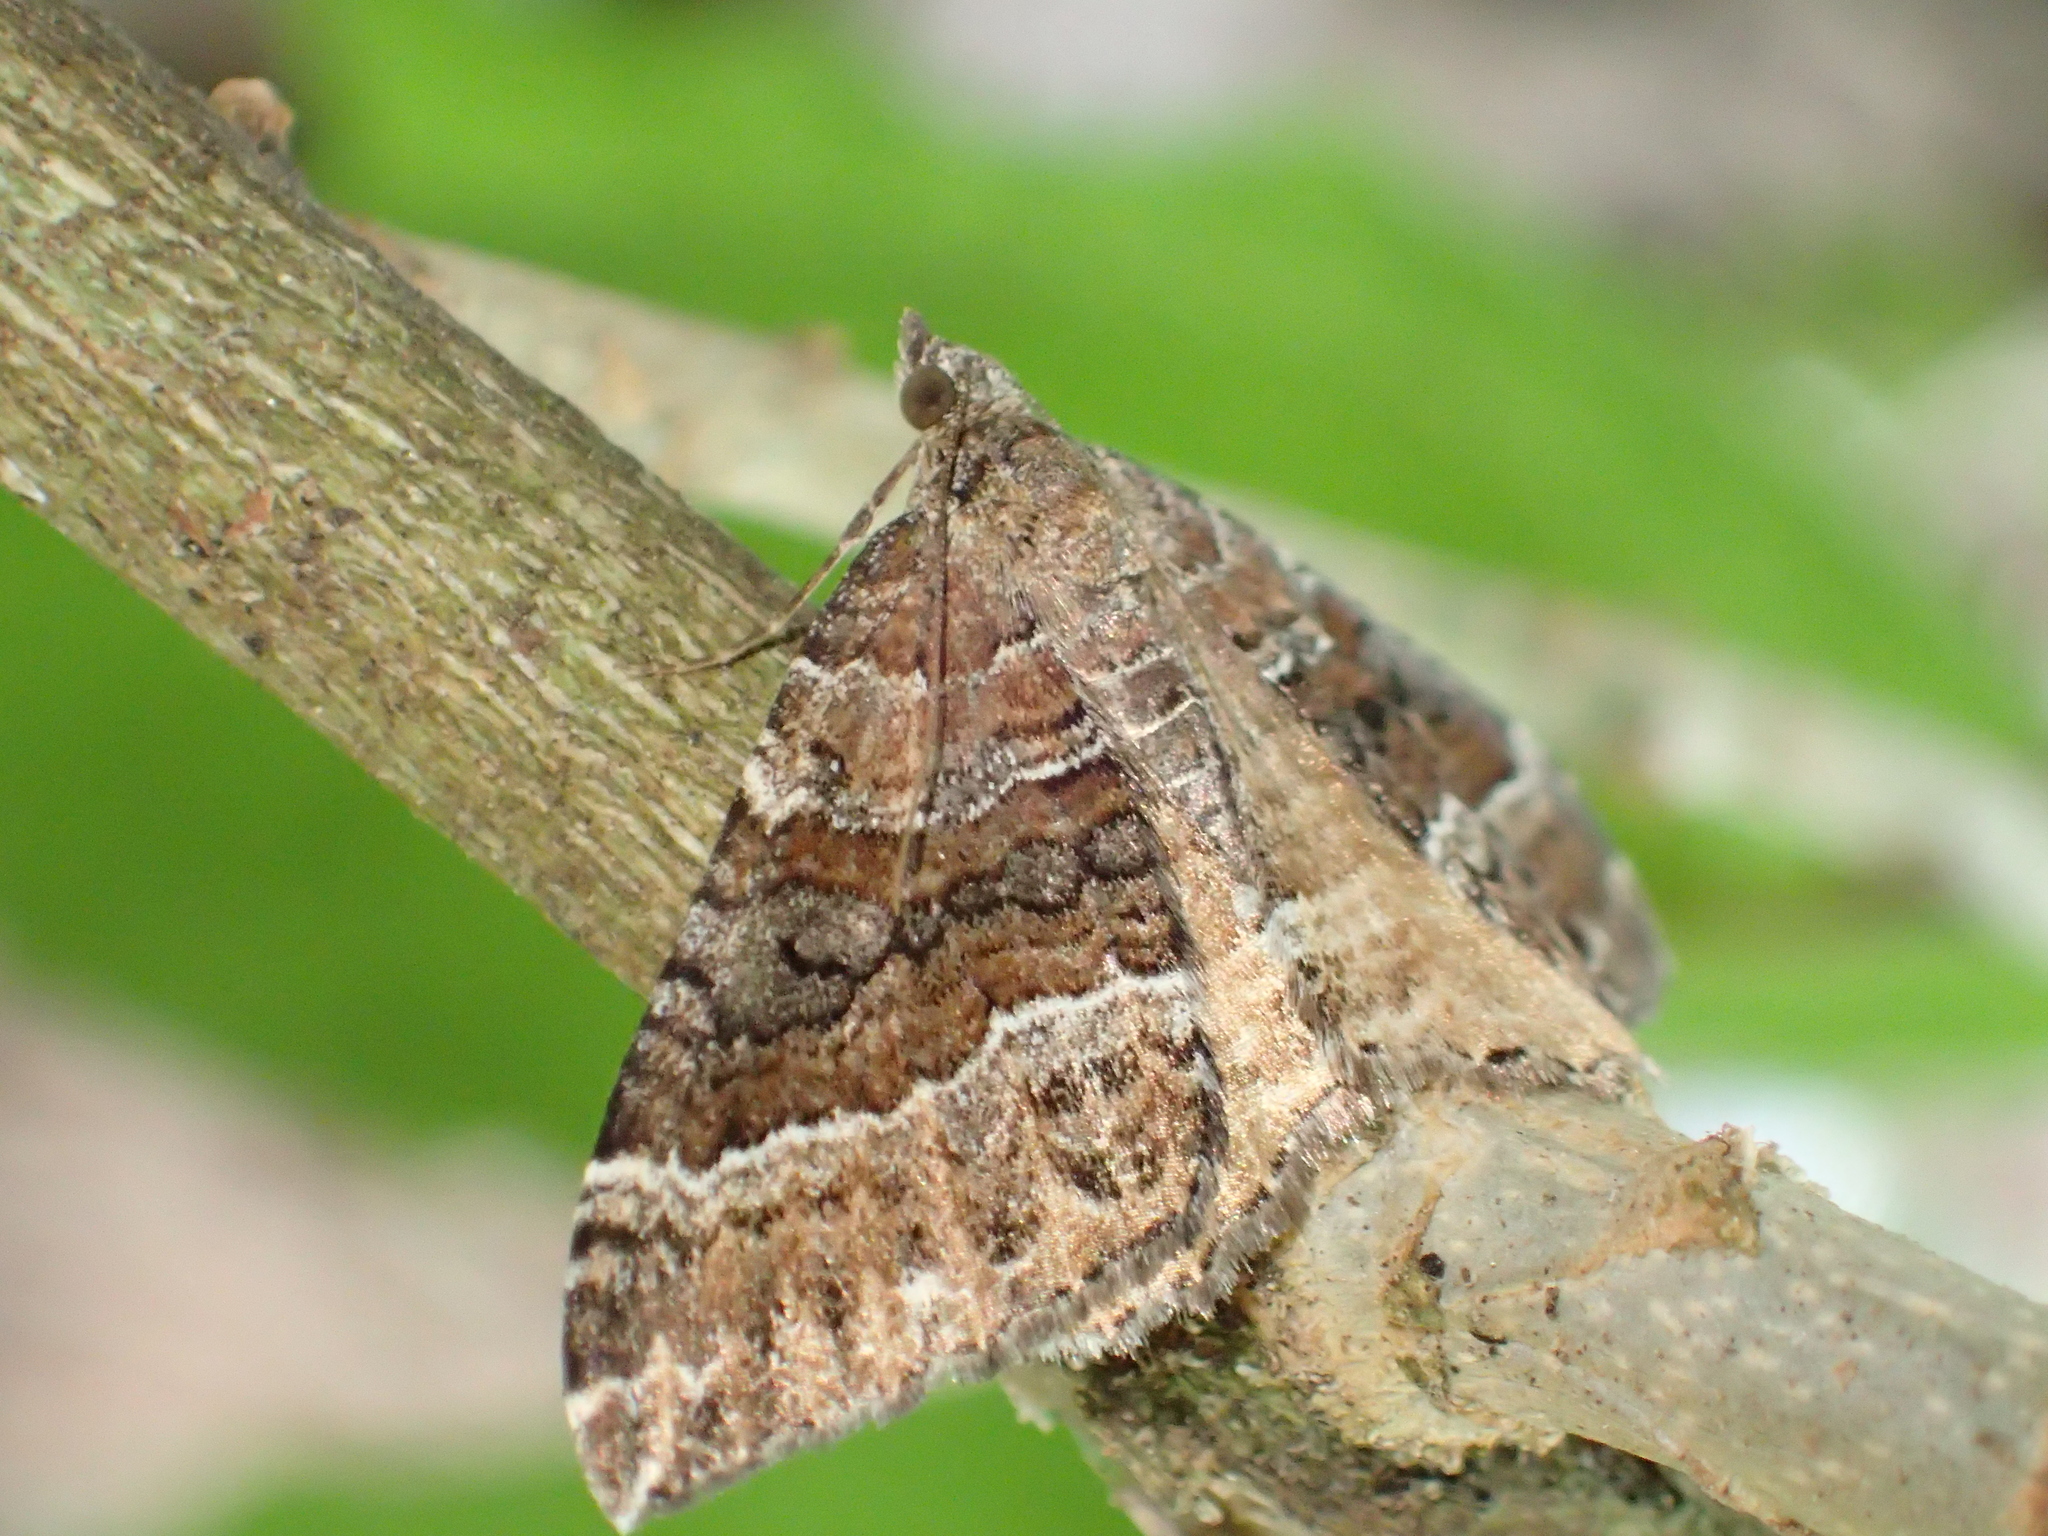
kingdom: Animalia
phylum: Arthropoda
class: Insecta
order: Lepidoptera
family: Geometridae
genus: Hydriomena
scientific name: Hydriomena deltoidata
